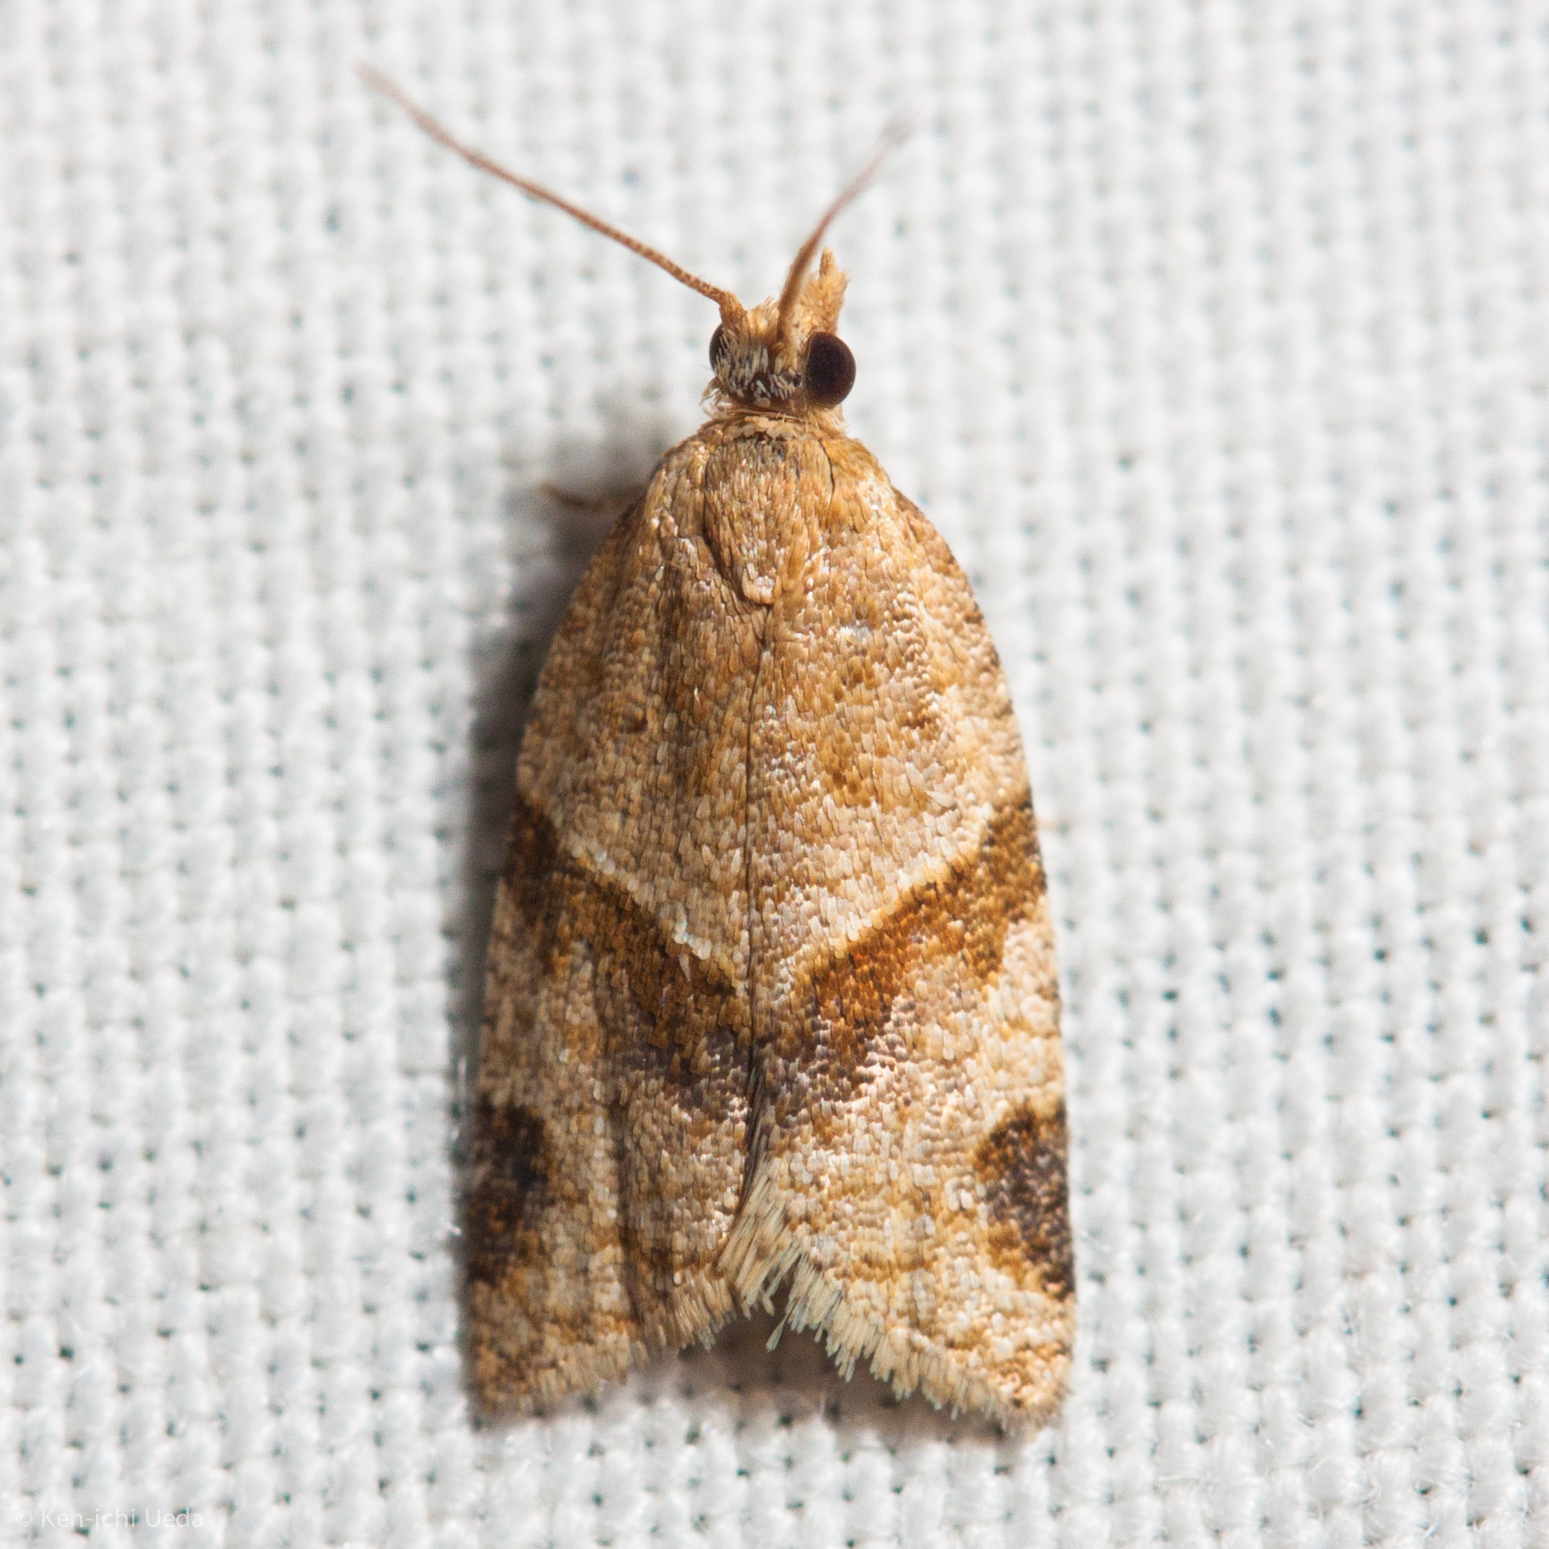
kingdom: Animalia
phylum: Arthropoda
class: Insecta
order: Lepidoptera
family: Tortricidae
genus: Clepsis
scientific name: Clepsis peritana
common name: Garden tortrix
